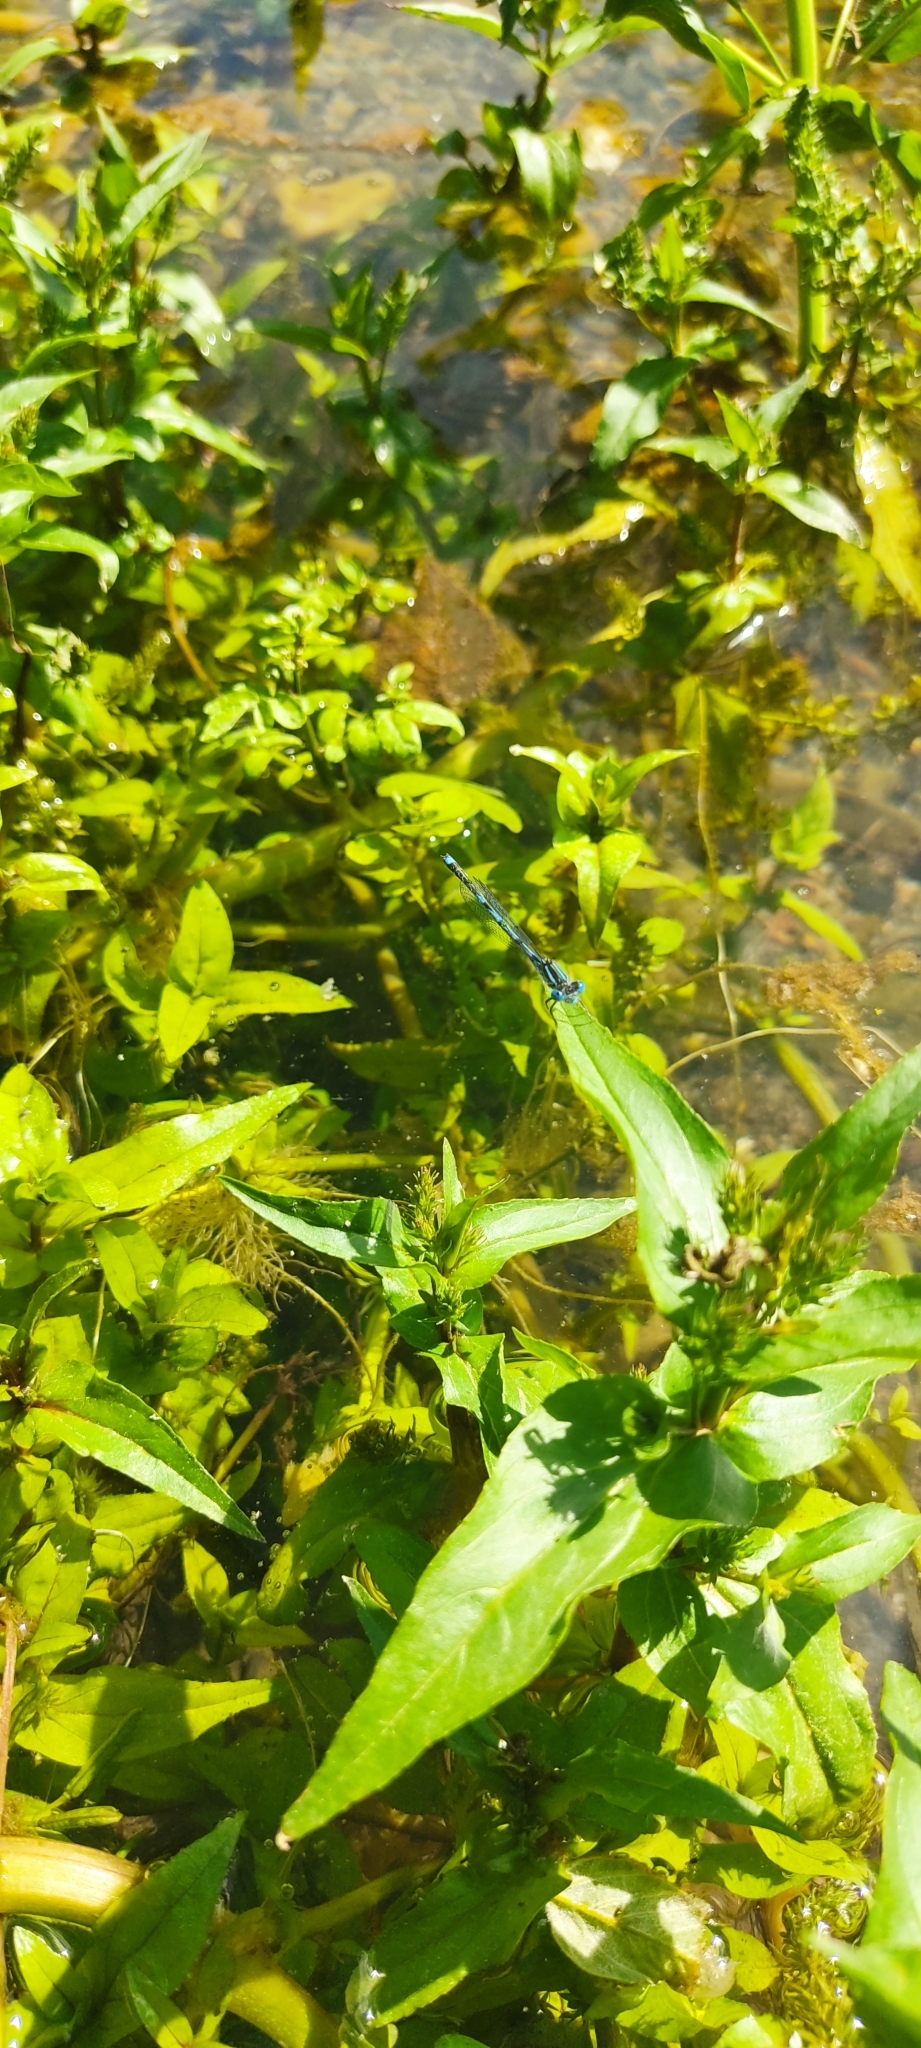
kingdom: Animalia
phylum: Arthropoda
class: Insecta
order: Odonata
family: Coenagrionidae
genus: Erythromma
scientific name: Erythromma lindenii
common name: Blue-eye
